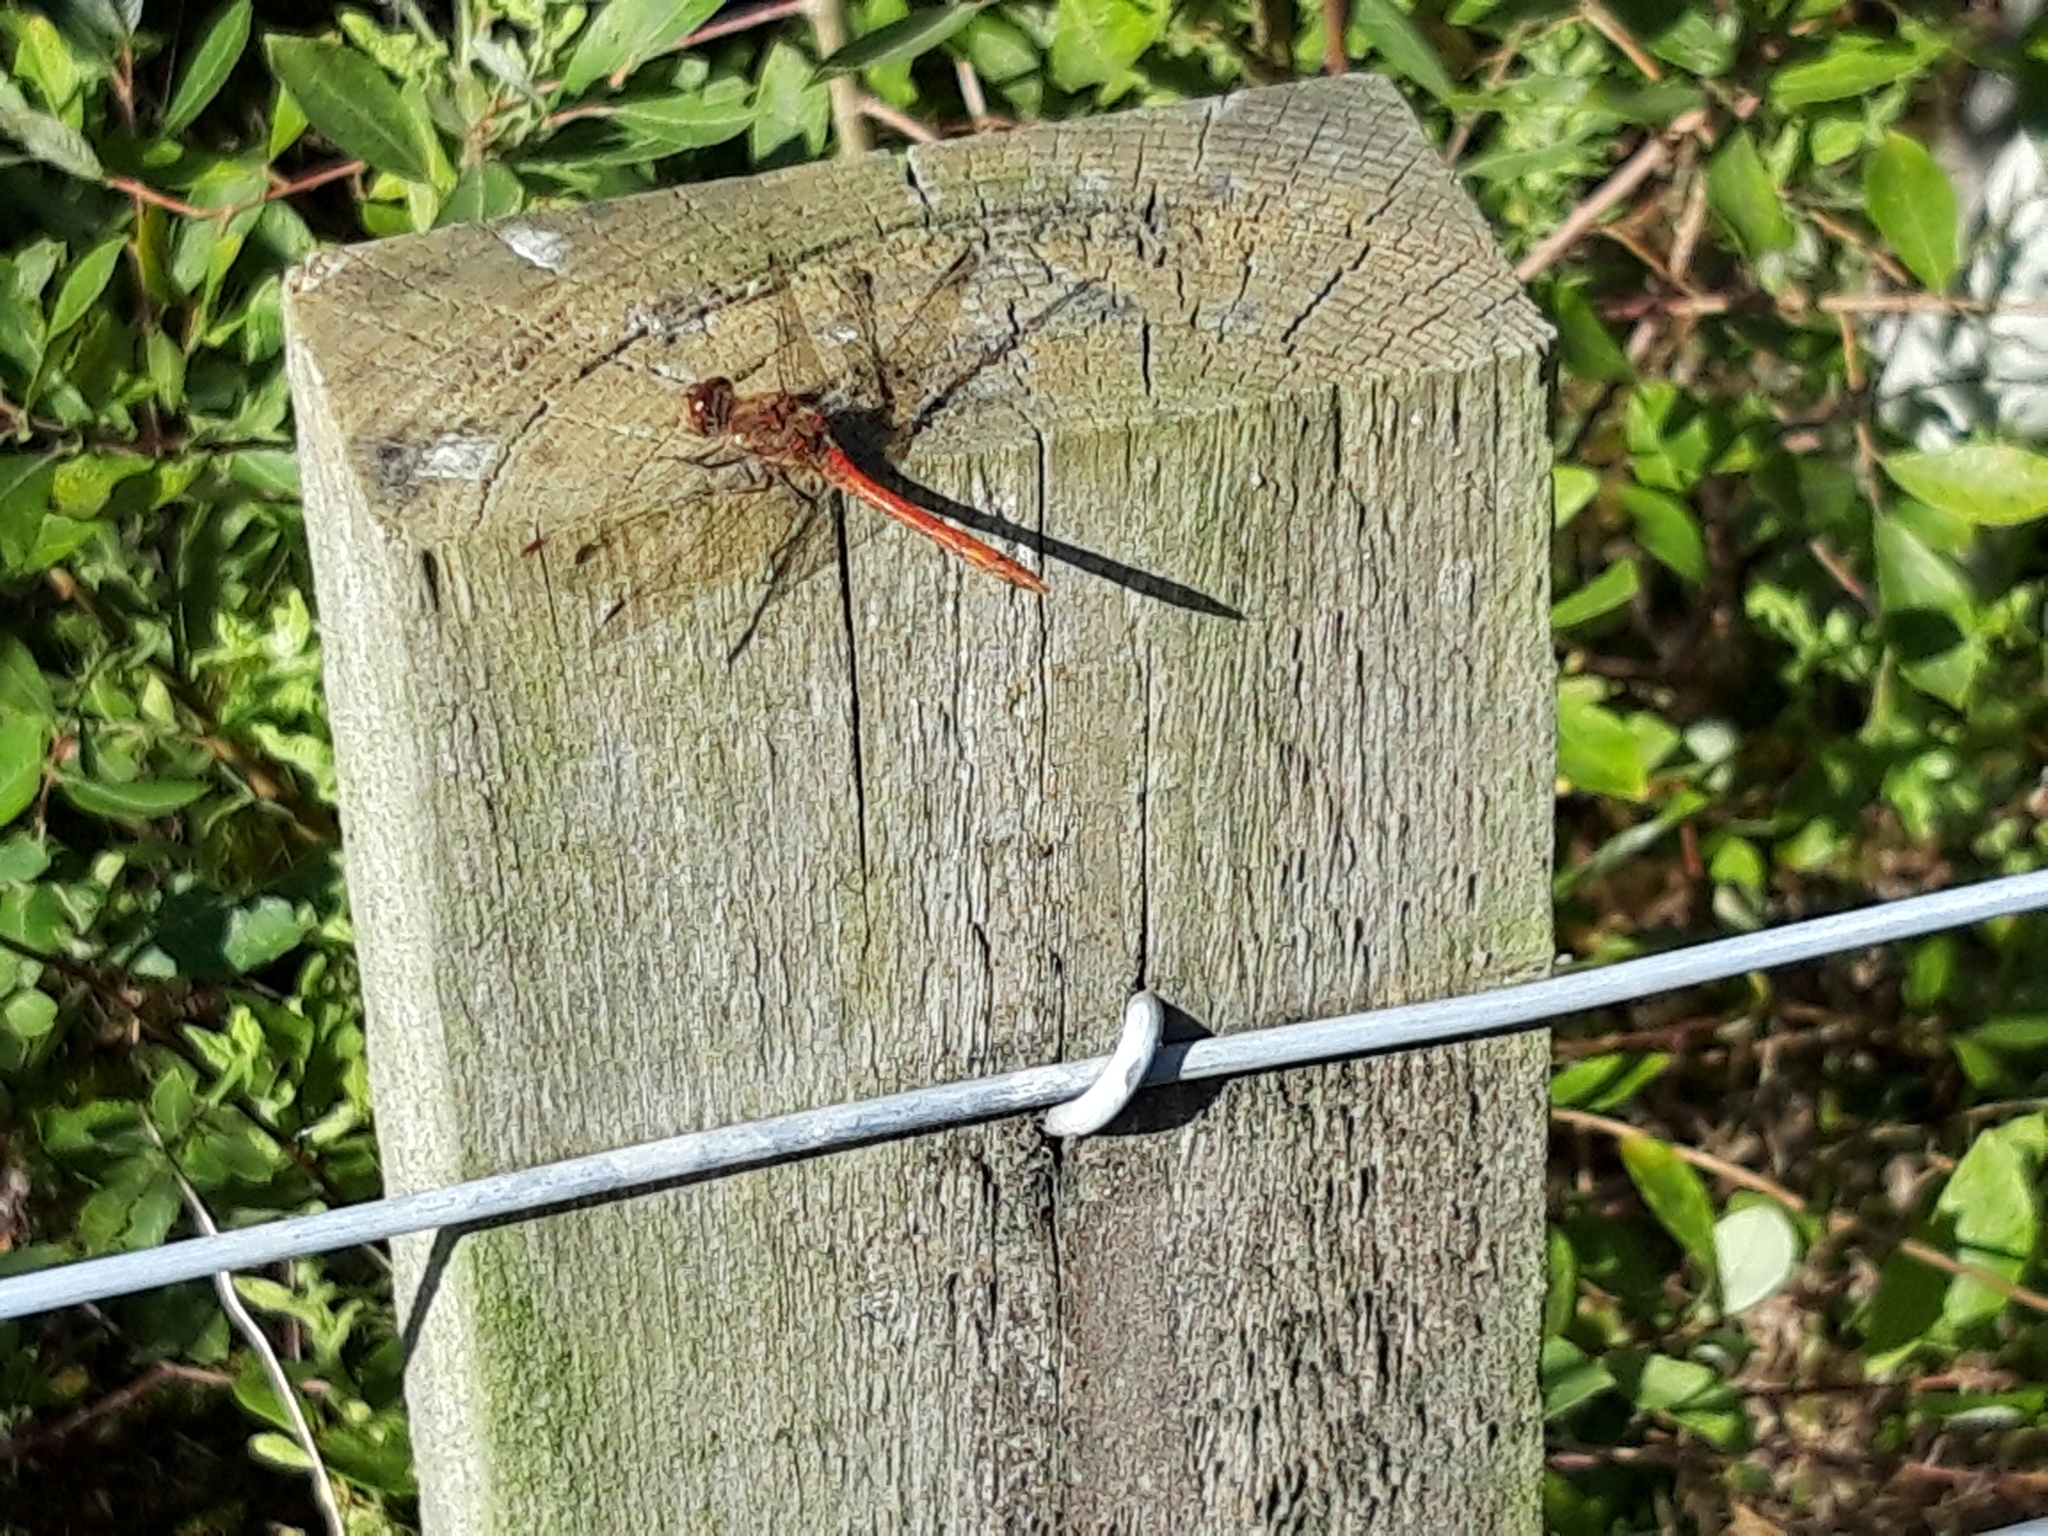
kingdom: Animalia
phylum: Arthropoda
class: Insecta
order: Odonata
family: Libellulidae
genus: Sympetrum
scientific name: Sympetrum striolatum
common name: Common darter
